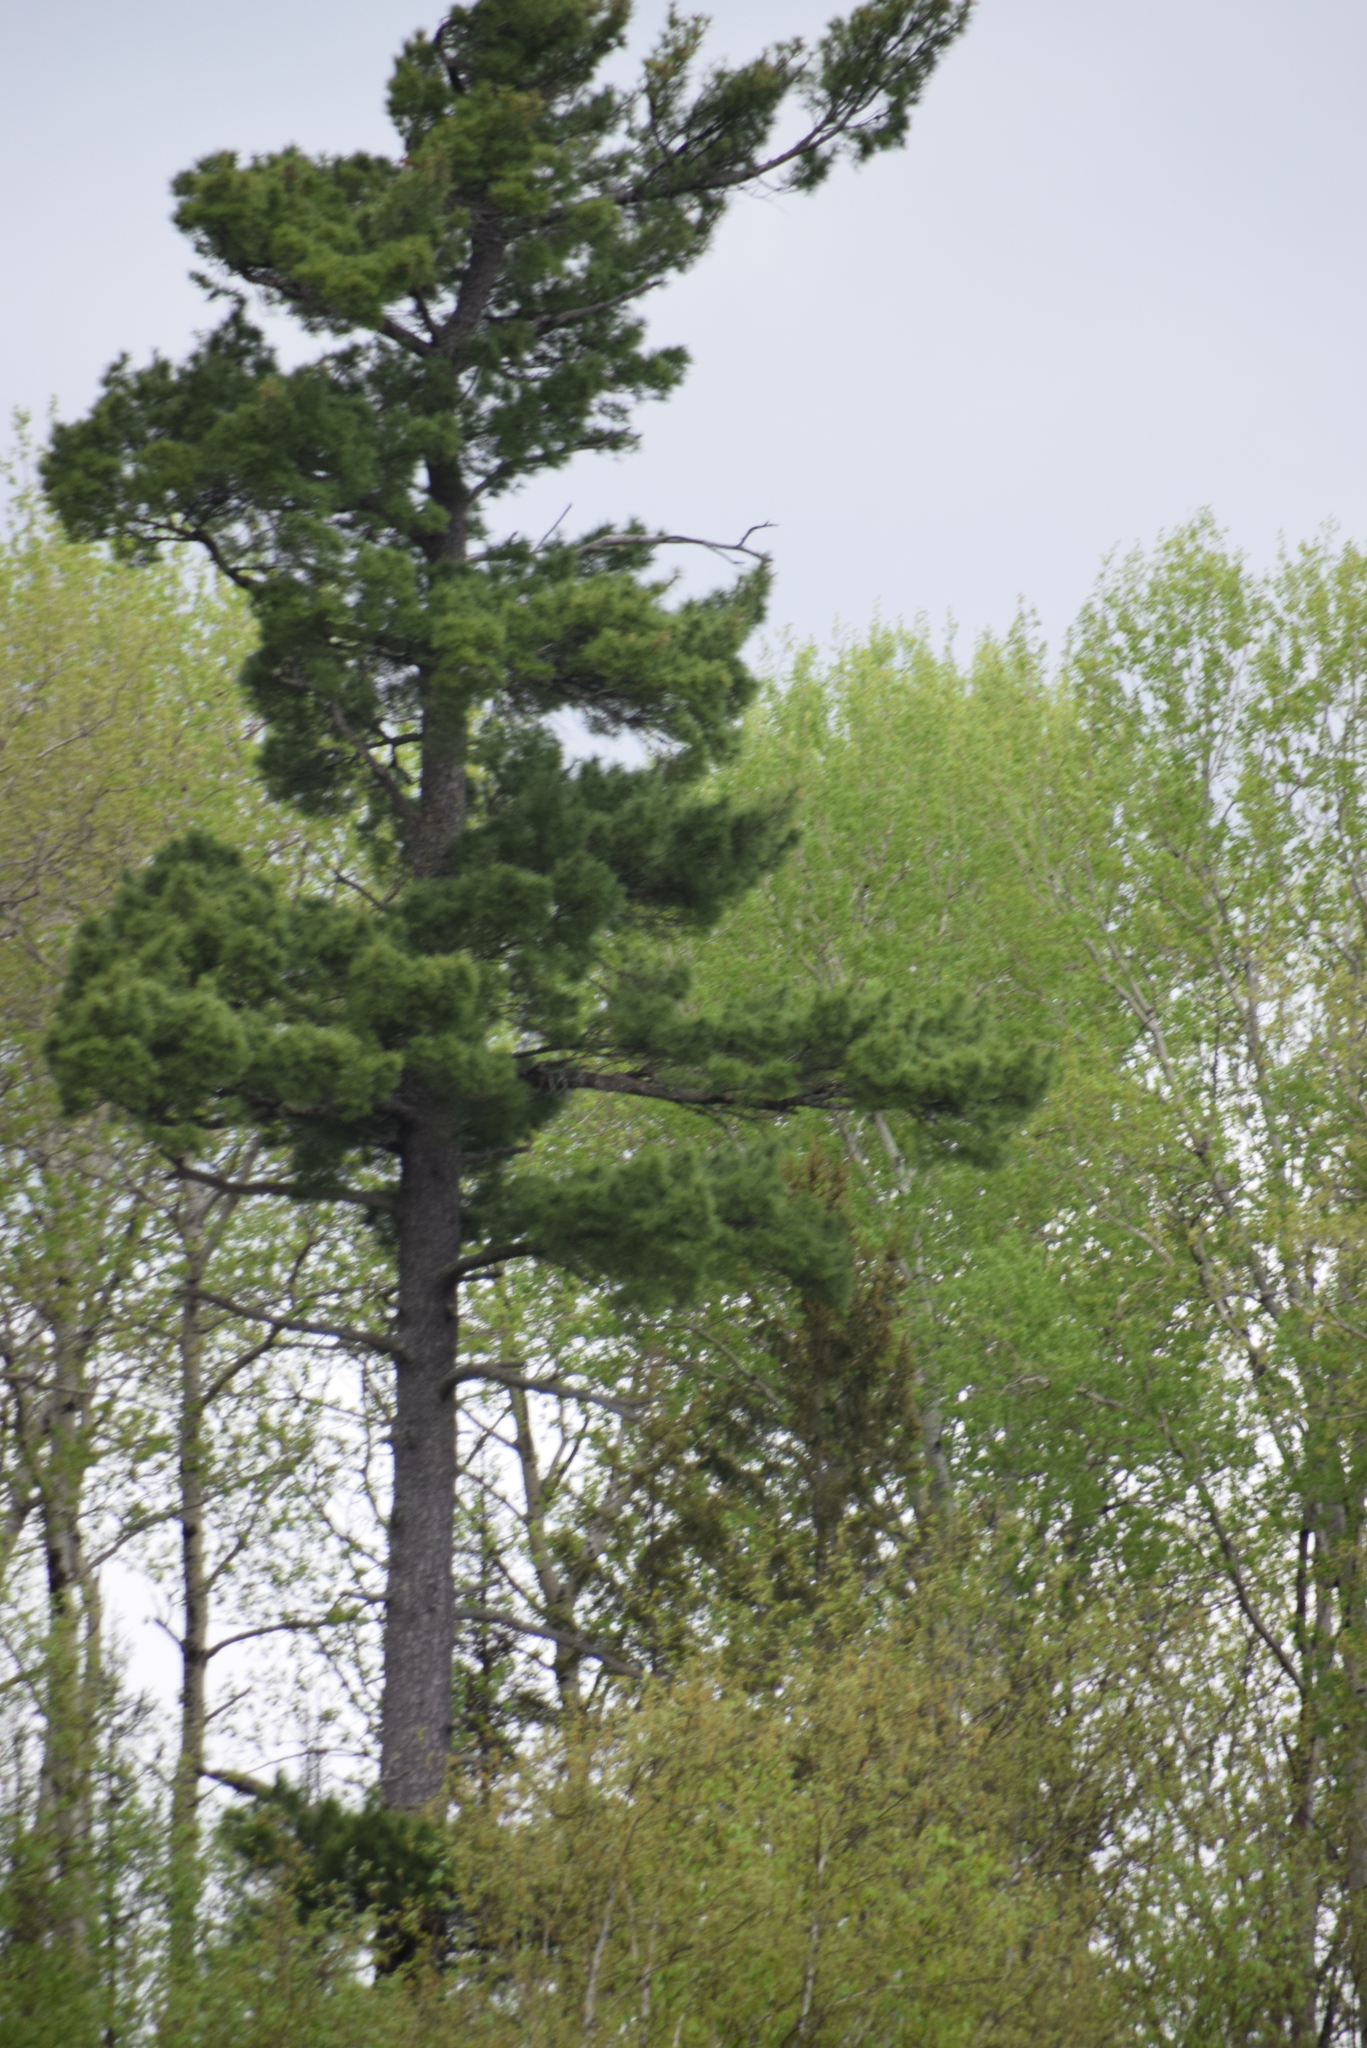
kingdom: Plantae
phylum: Tracheophyta
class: Pinopsida
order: Pinales
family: Pinaceae
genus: Pinus
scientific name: Pinus strobus
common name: Weymouth pine
